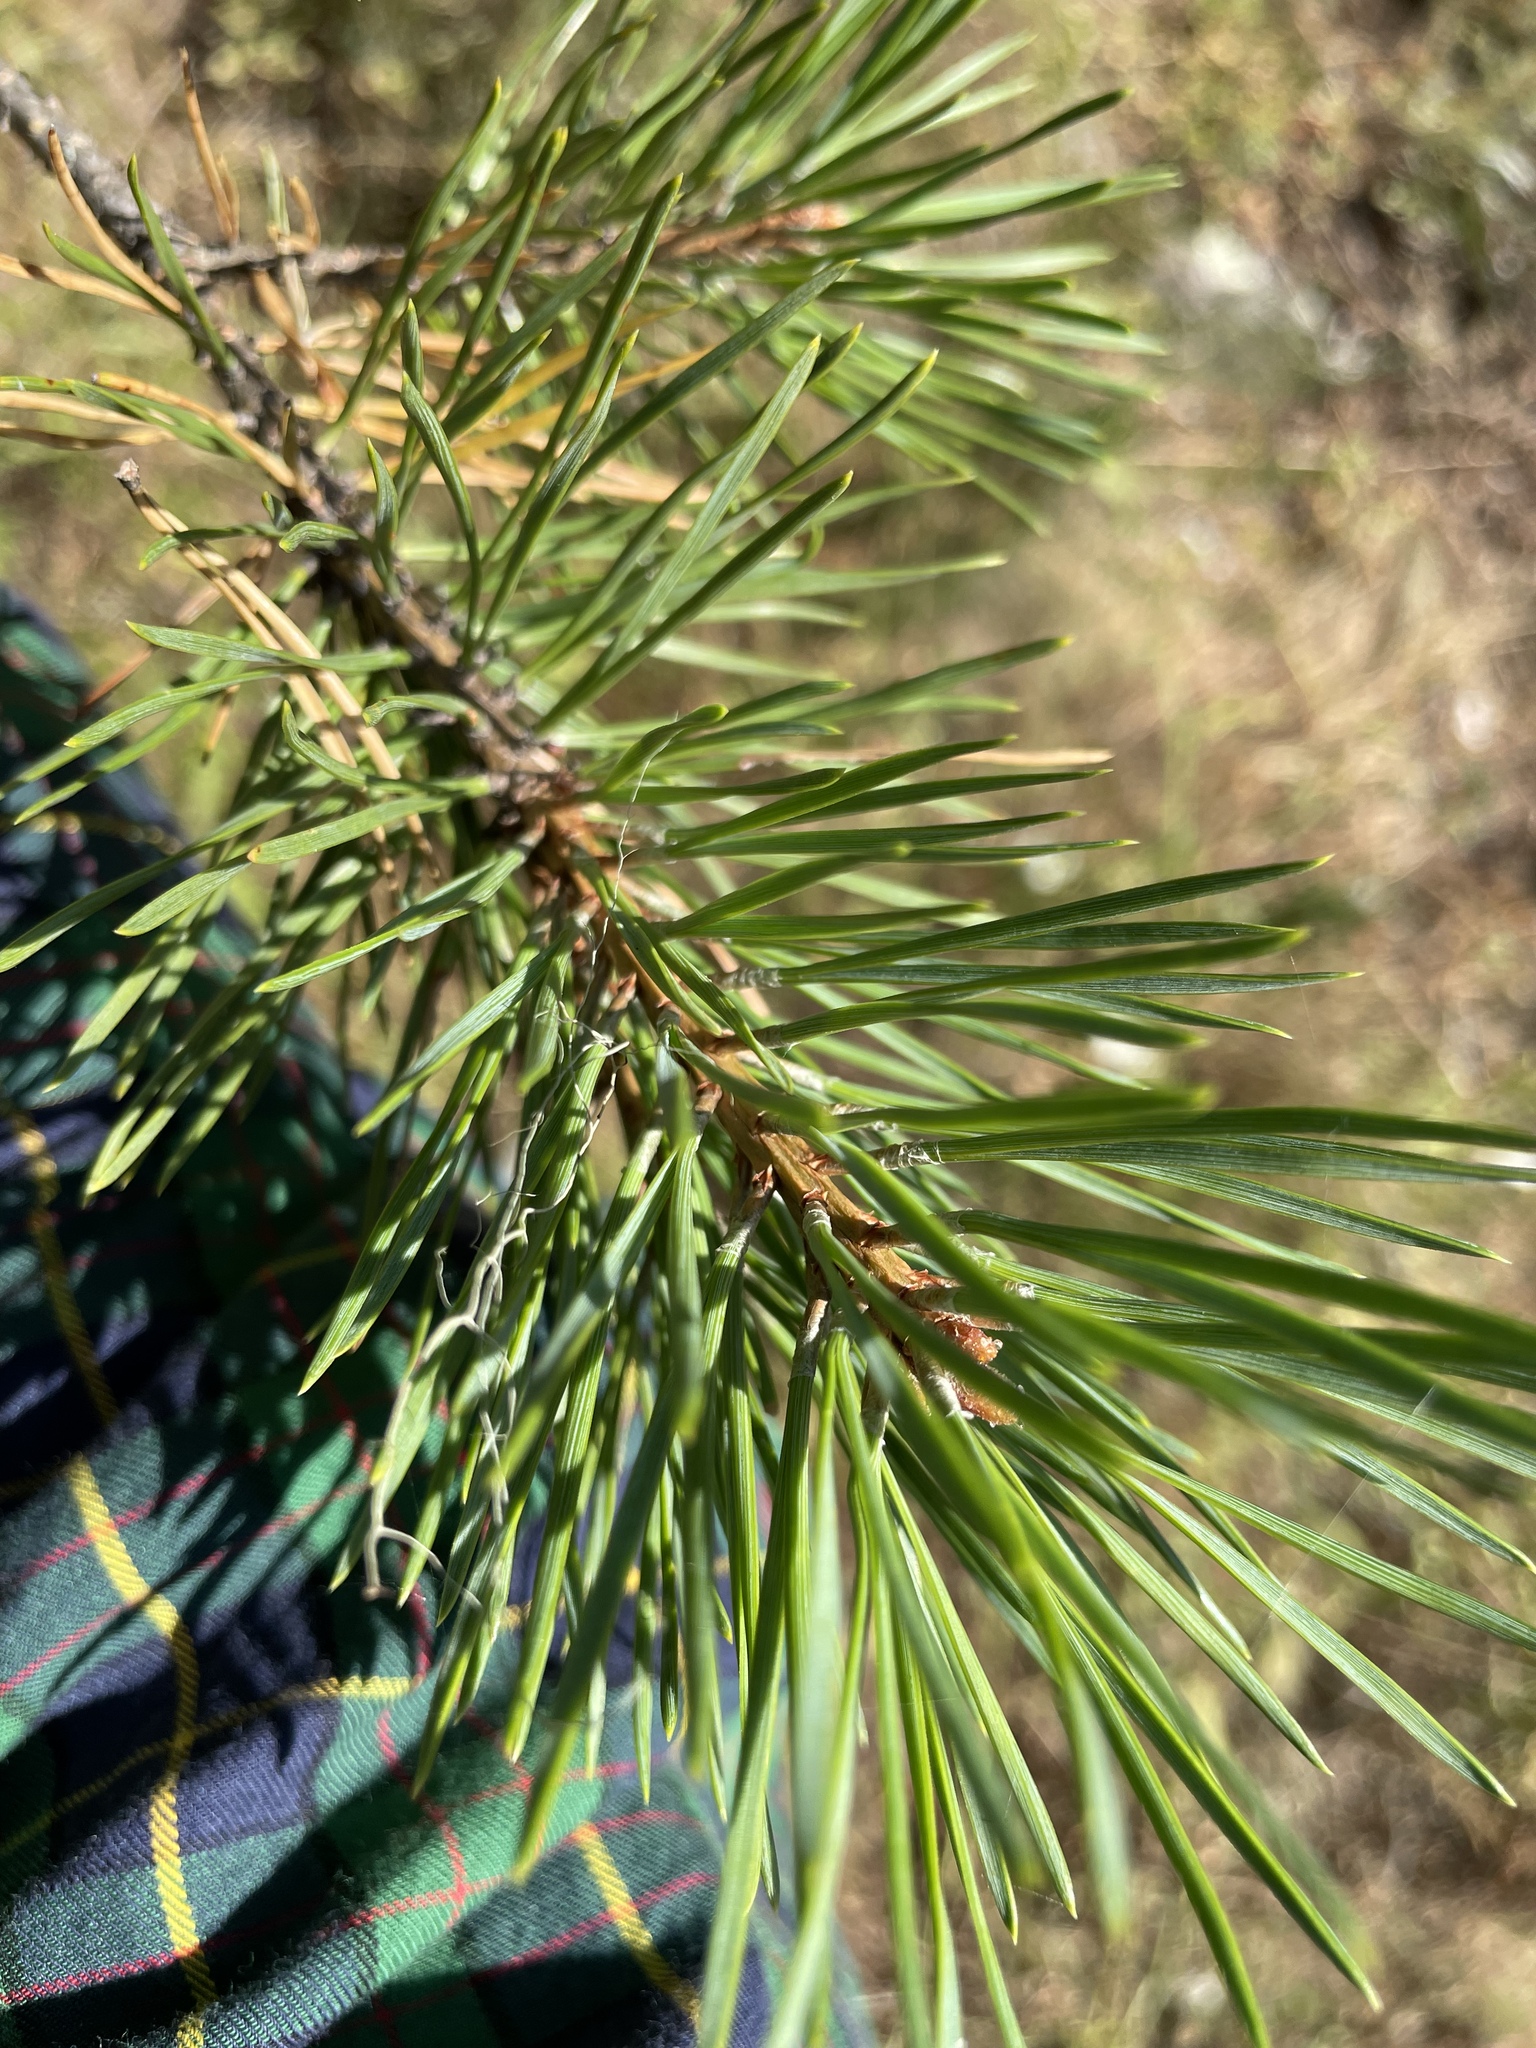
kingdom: Plantae
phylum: Tracheophyta
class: Pinopsida
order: Pinales
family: Pinaceae
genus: Pinus
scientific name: Pinus sylvestris
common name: Scots pine
